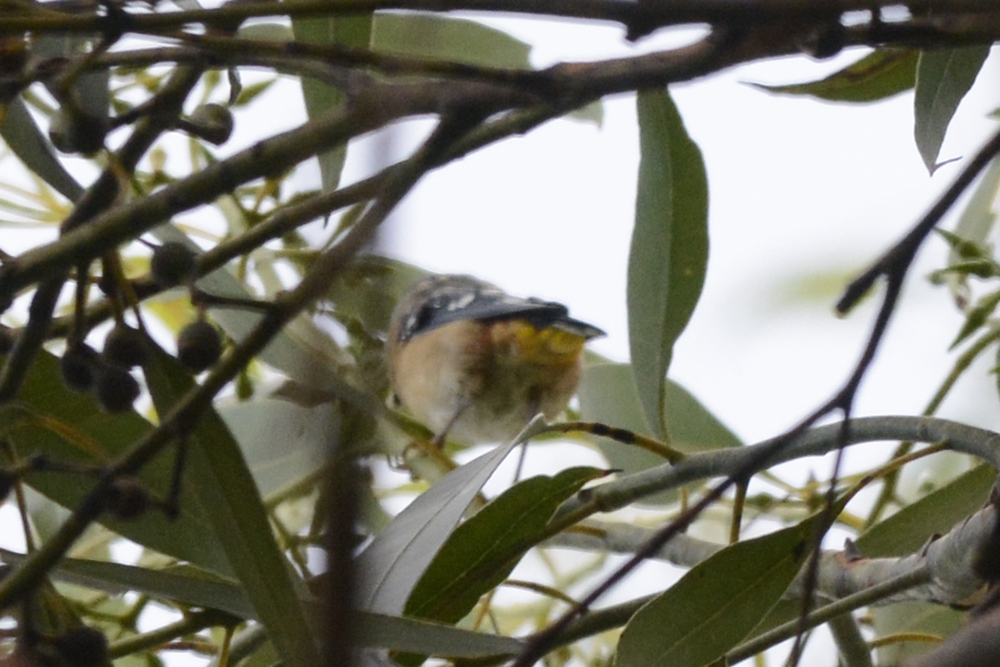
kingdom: Animalia
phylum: Chordata
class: Aves
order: Passeriformes
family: Pardalotidae
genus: Pardalotus
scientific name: Pardalotus punctatus
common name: Spotted pardalote
